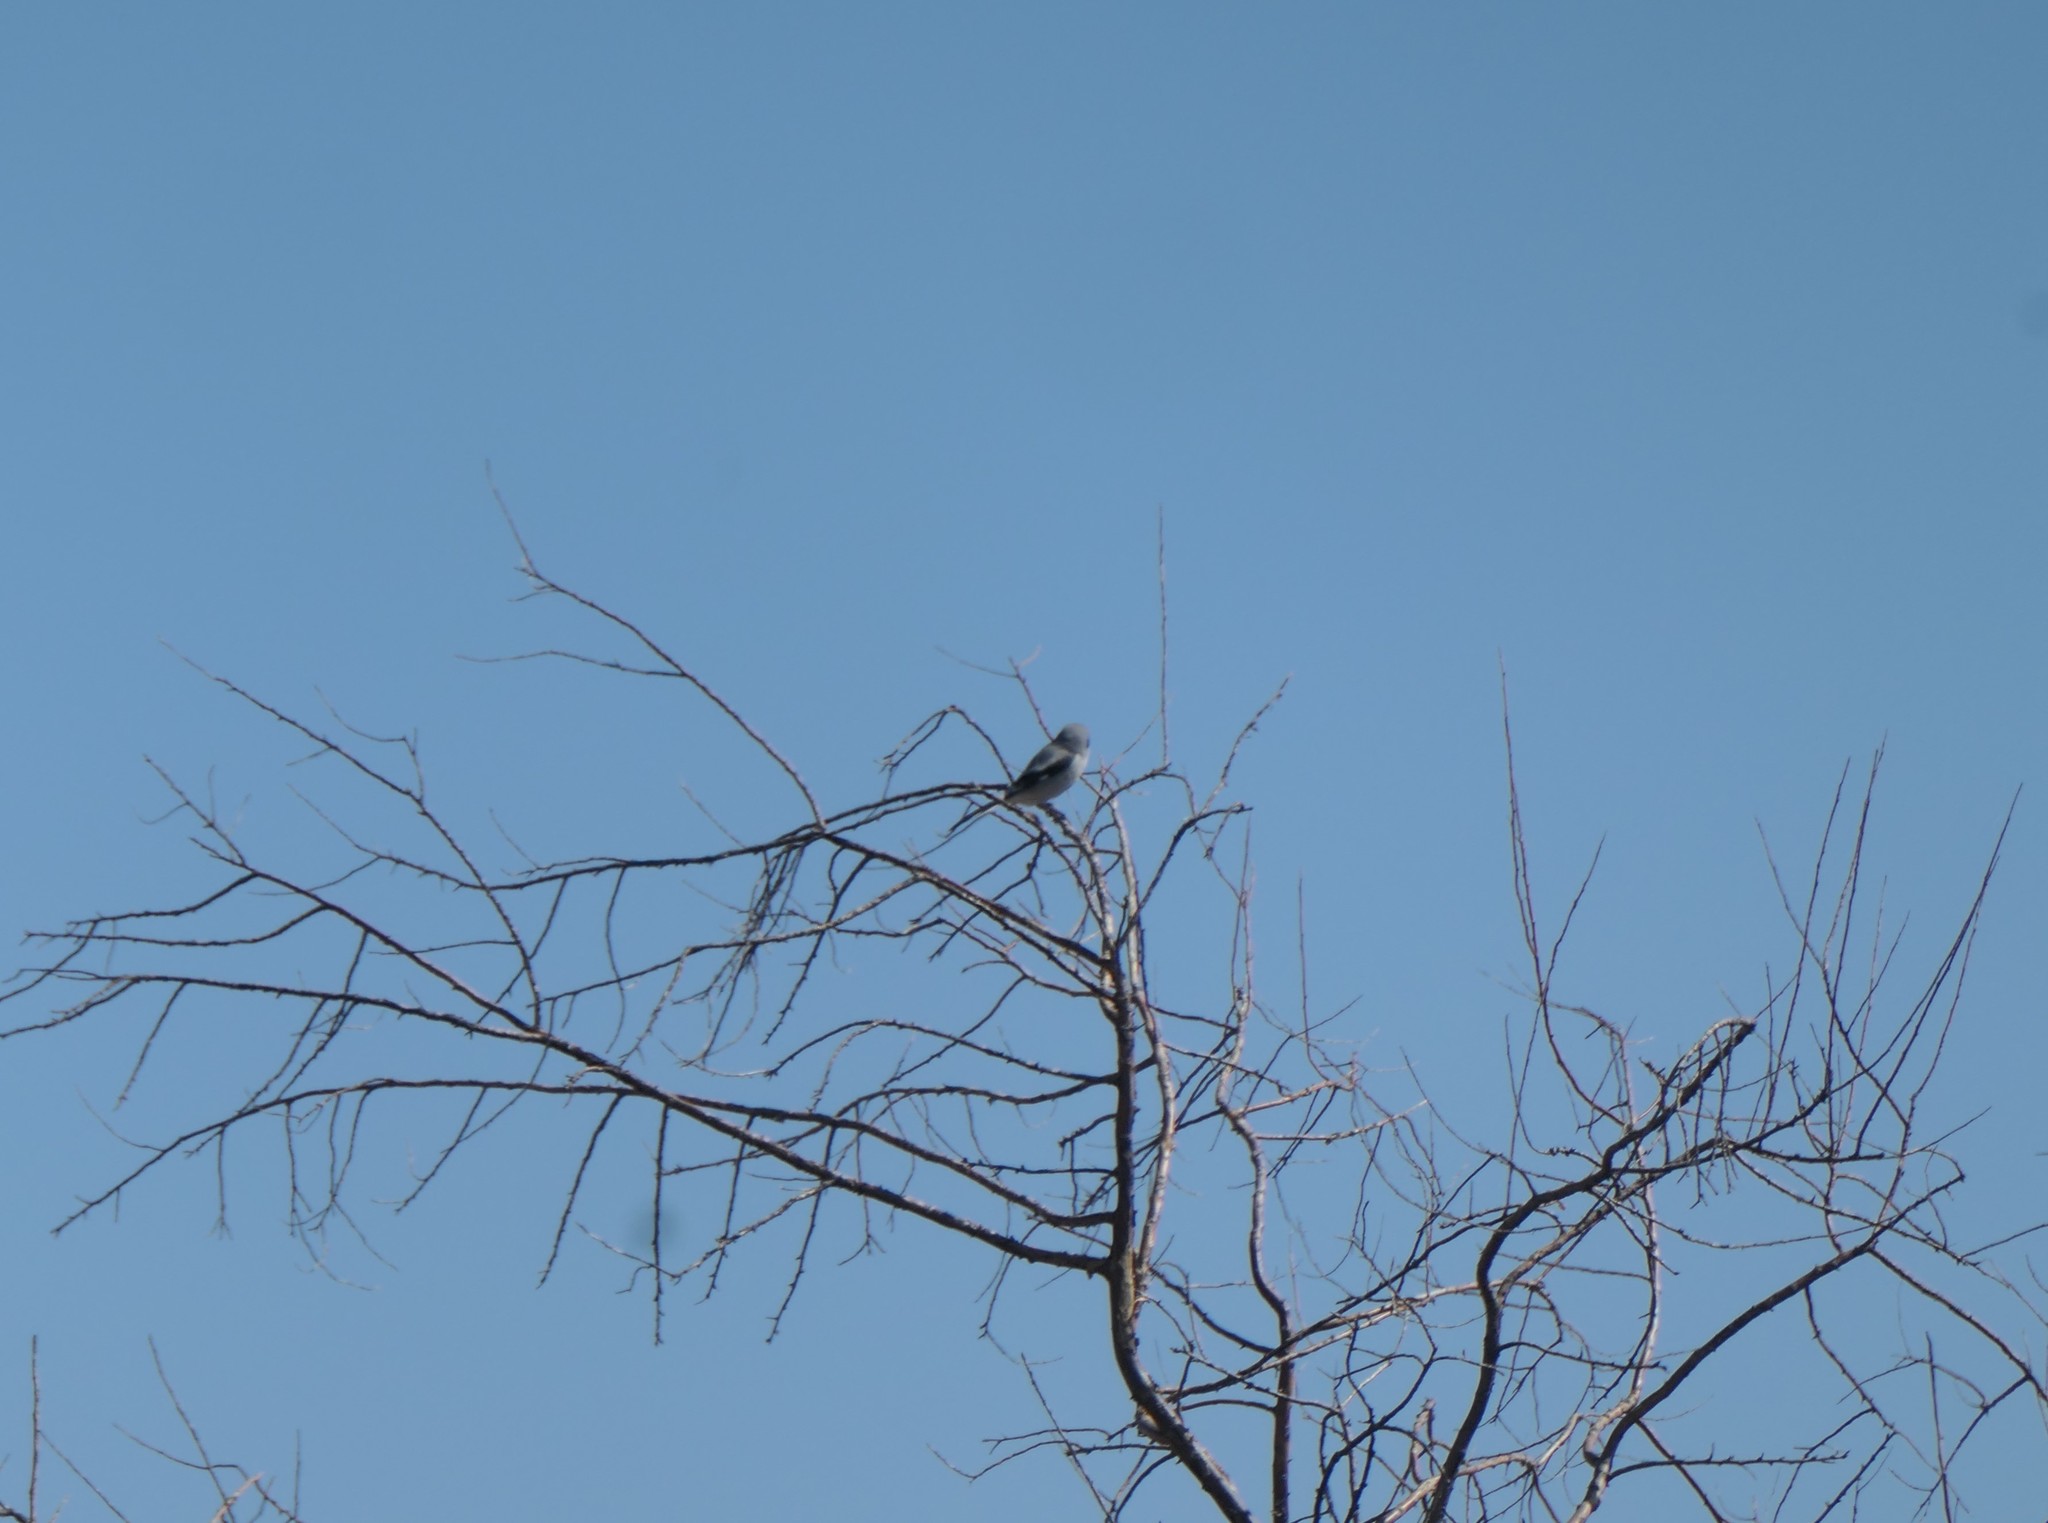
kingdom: Animalia
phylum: Chordata
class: Aves
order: Passeriformes
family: Laniidae
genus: Lanius
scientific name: Lanius ludovicianus
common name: Loggerhead shrike
